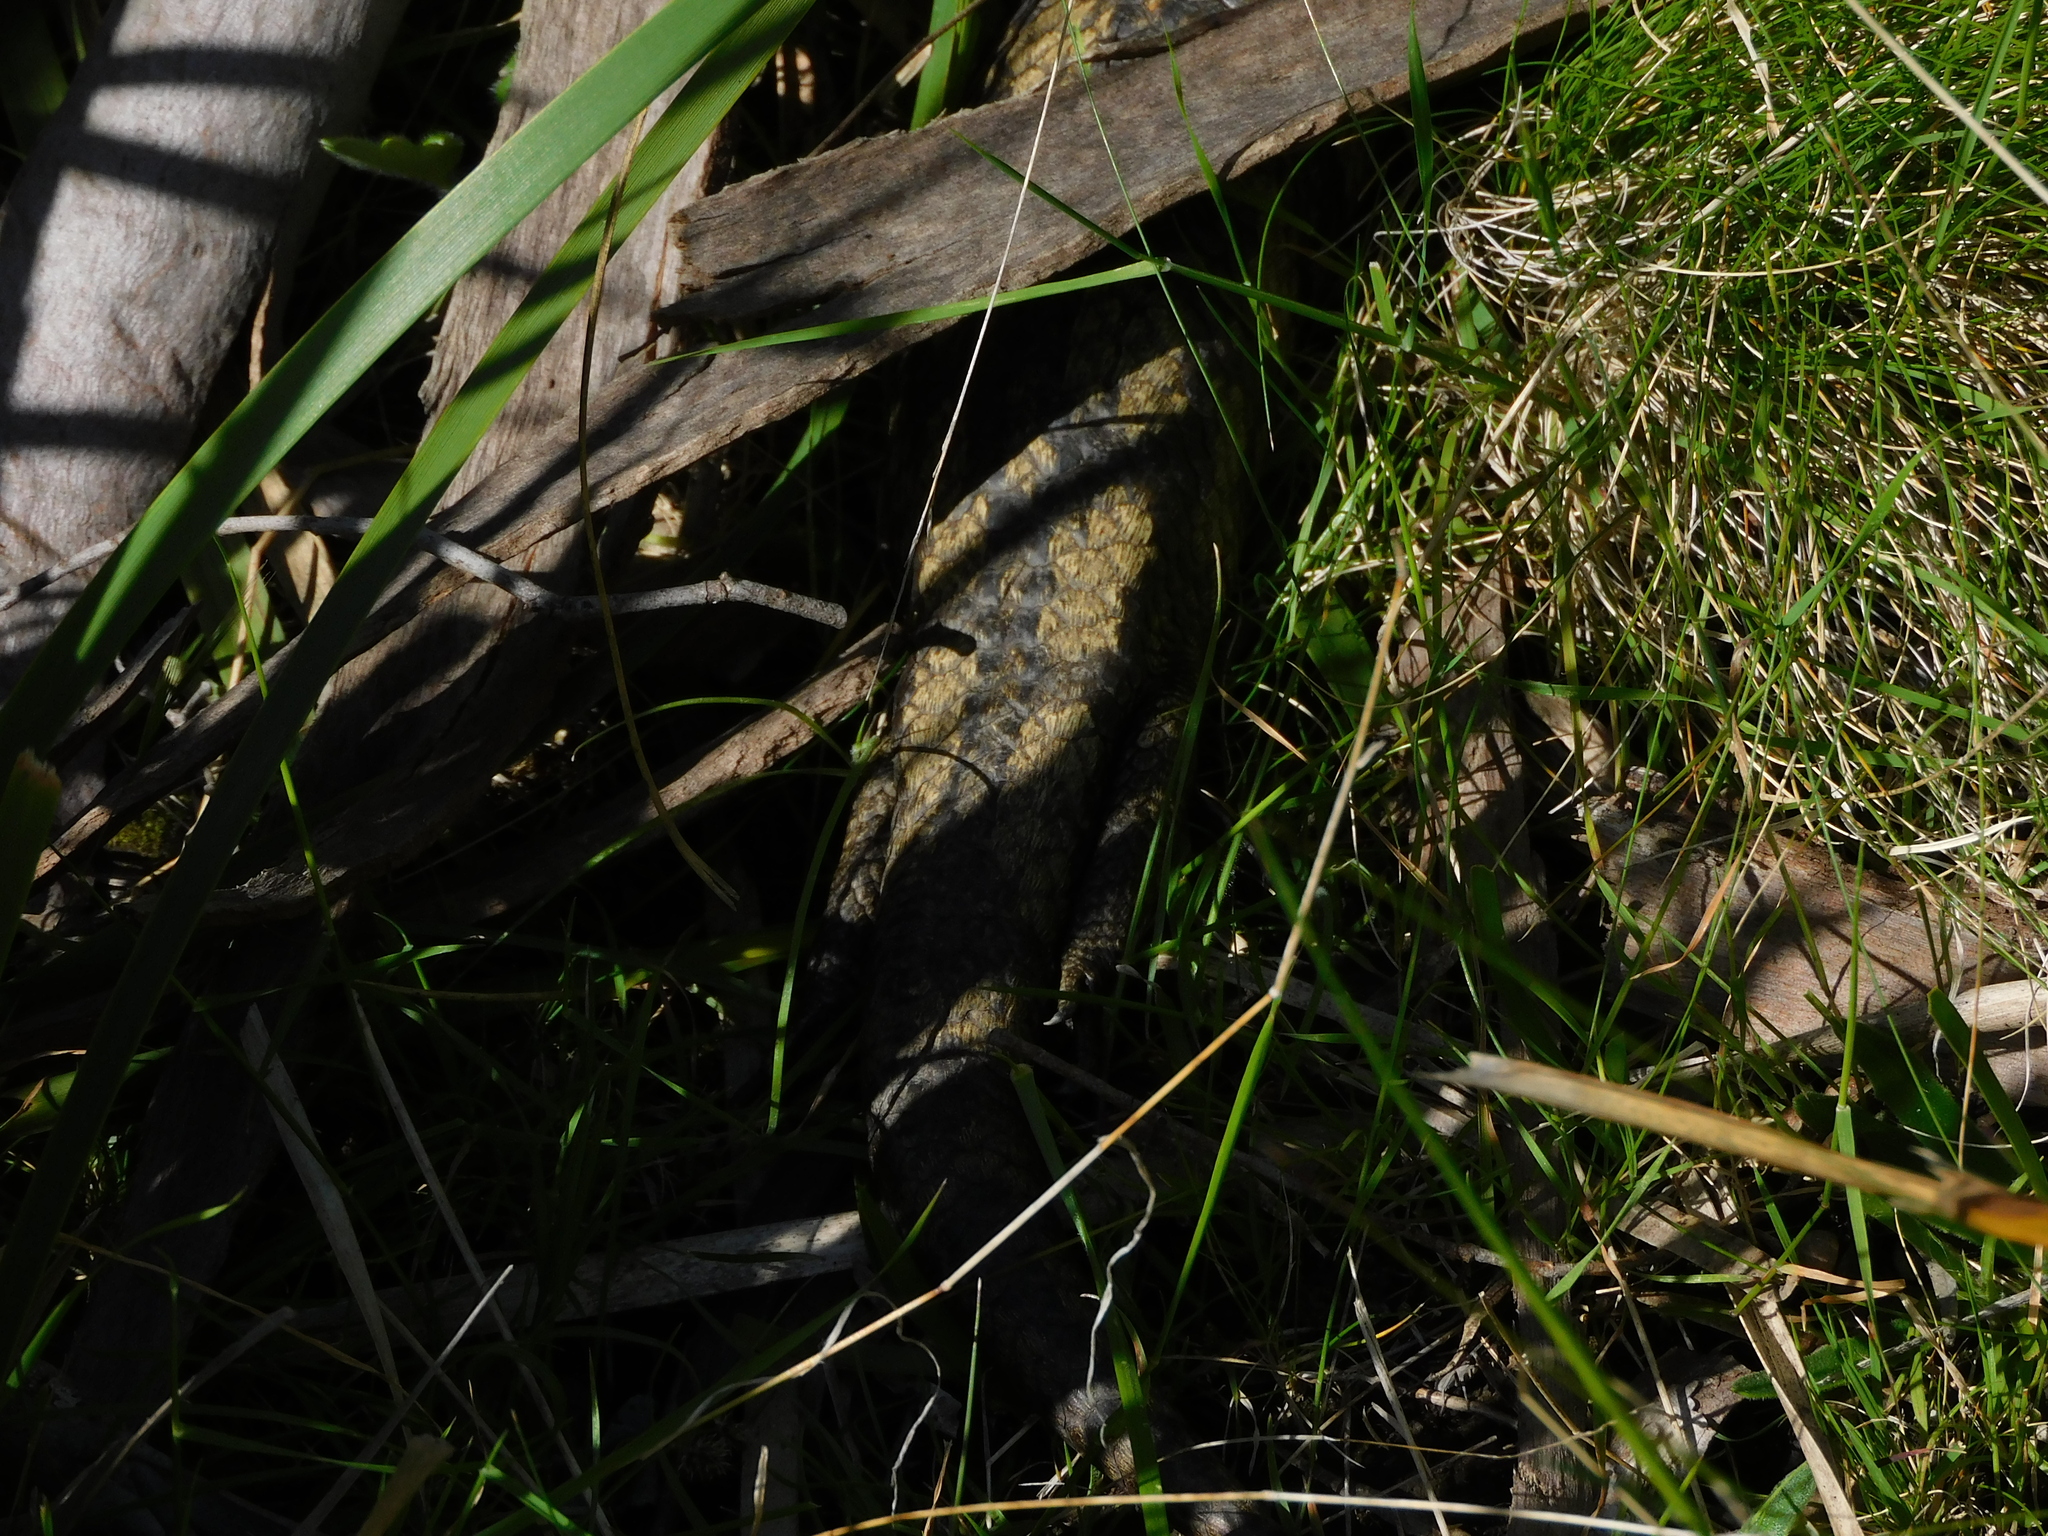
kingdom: Animalia
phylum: Chordata
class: Squamata
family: Scincidae
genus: Tiliqua
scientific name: Tiliqua nigrolutea
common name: Blotched blue-tongued lizard
